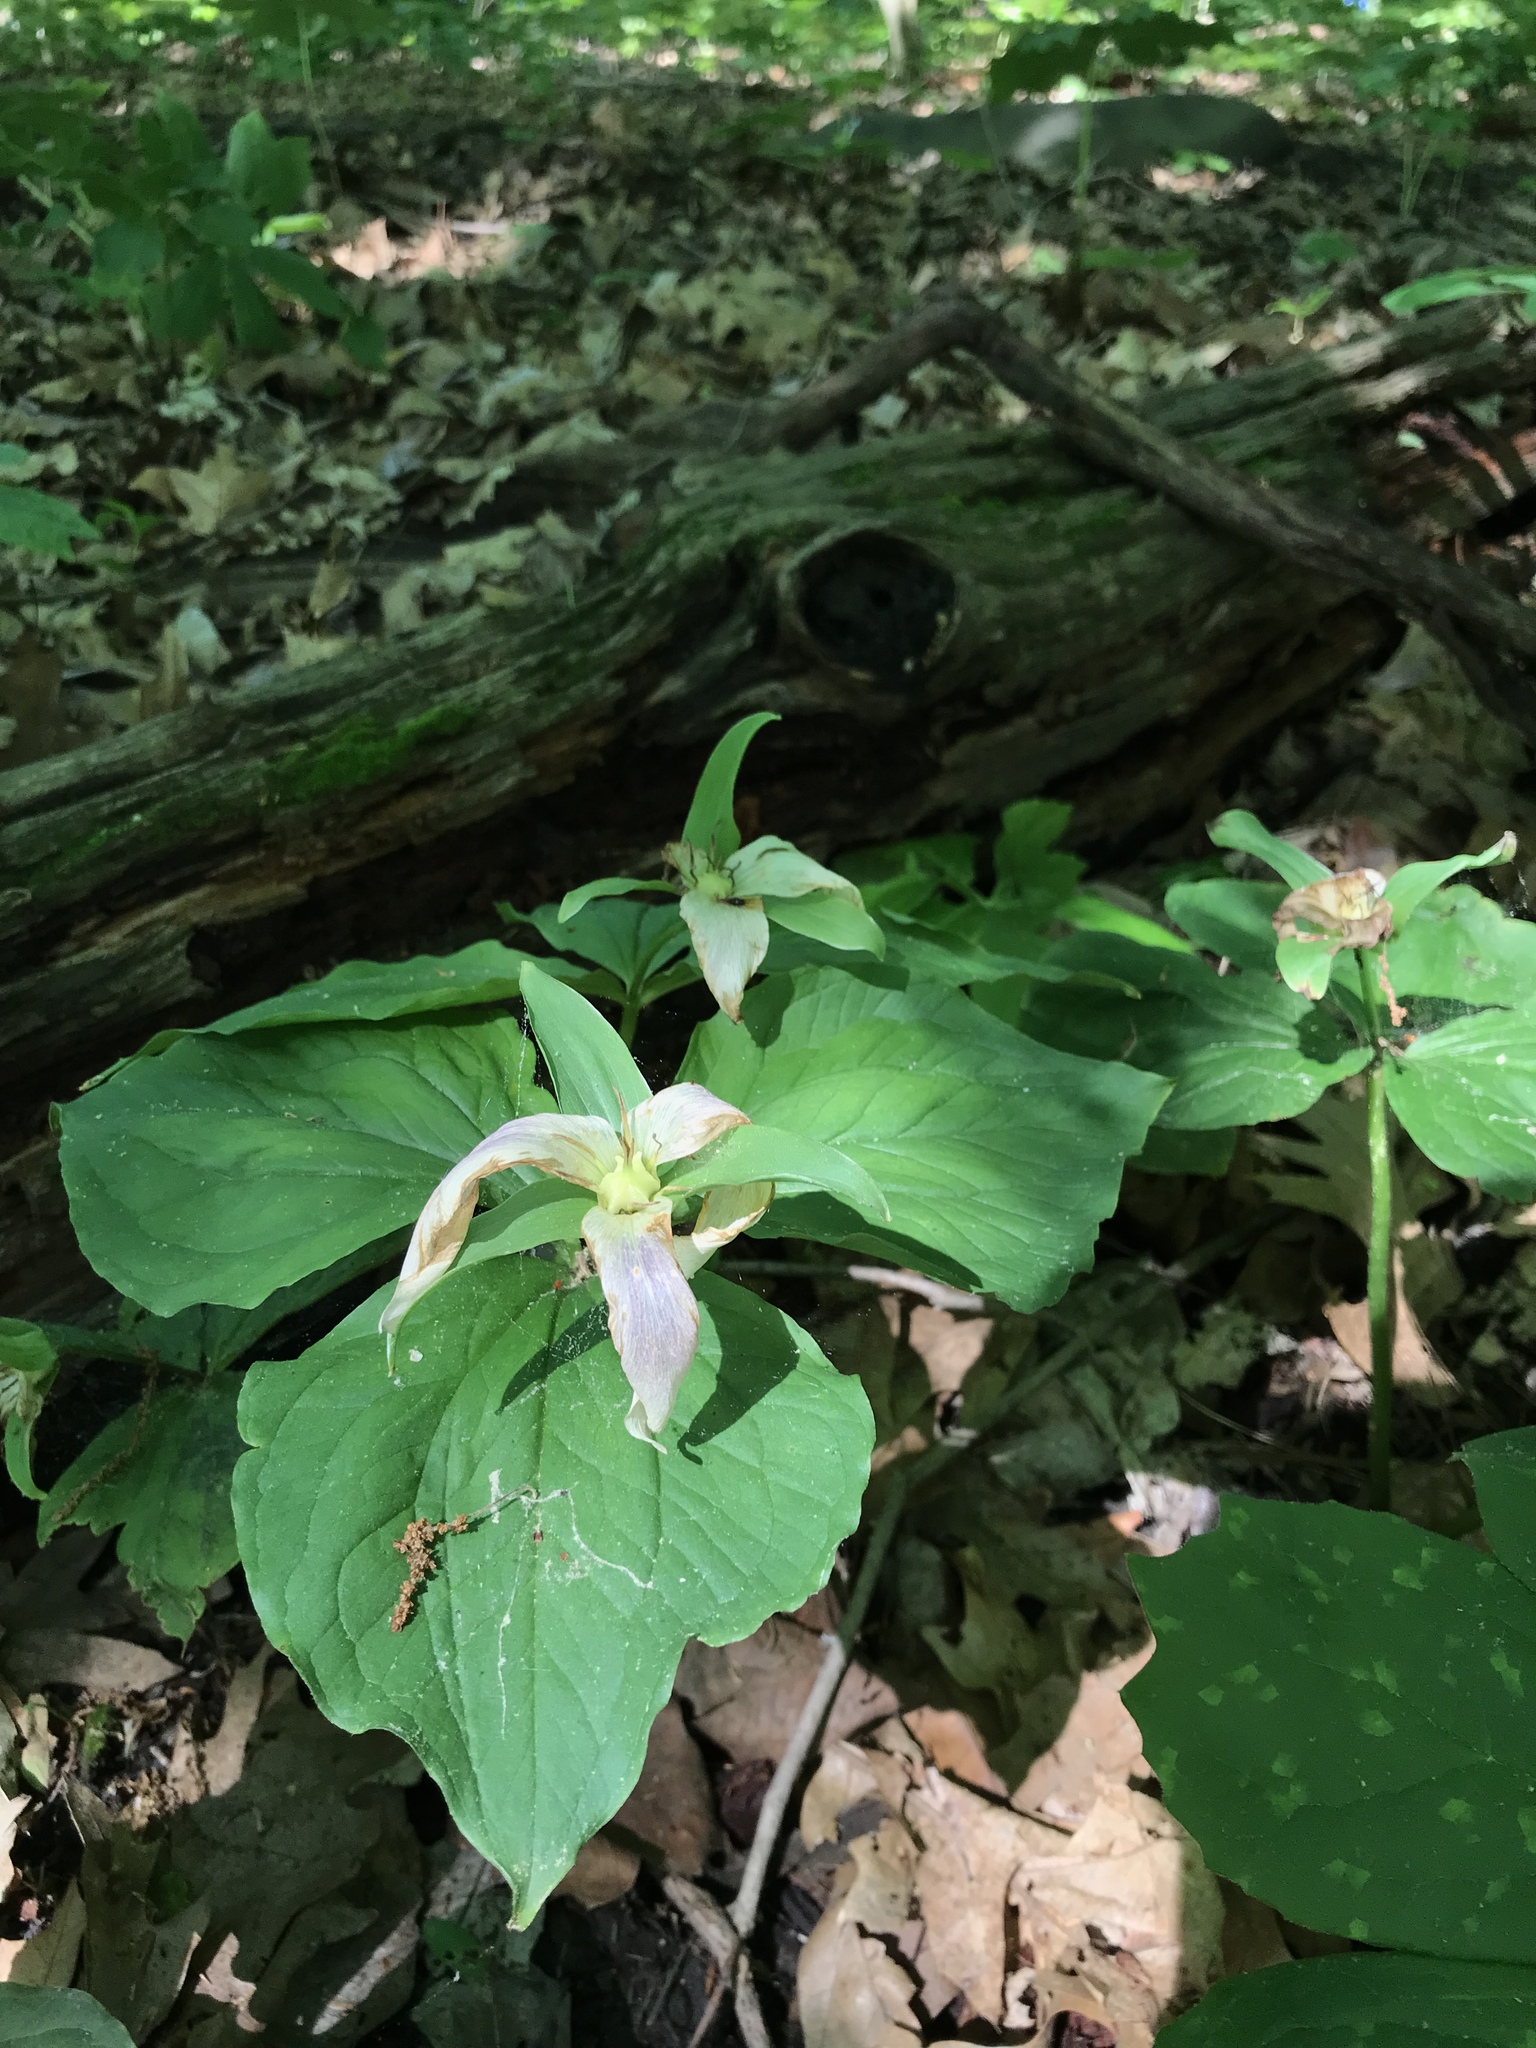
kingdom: Plantae
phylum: Tracheophyta
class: Liliopsida
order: Liliales
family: Melanthiaceae
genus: Trillium
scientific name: Trillium grandiflorum
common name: Great white trillium
